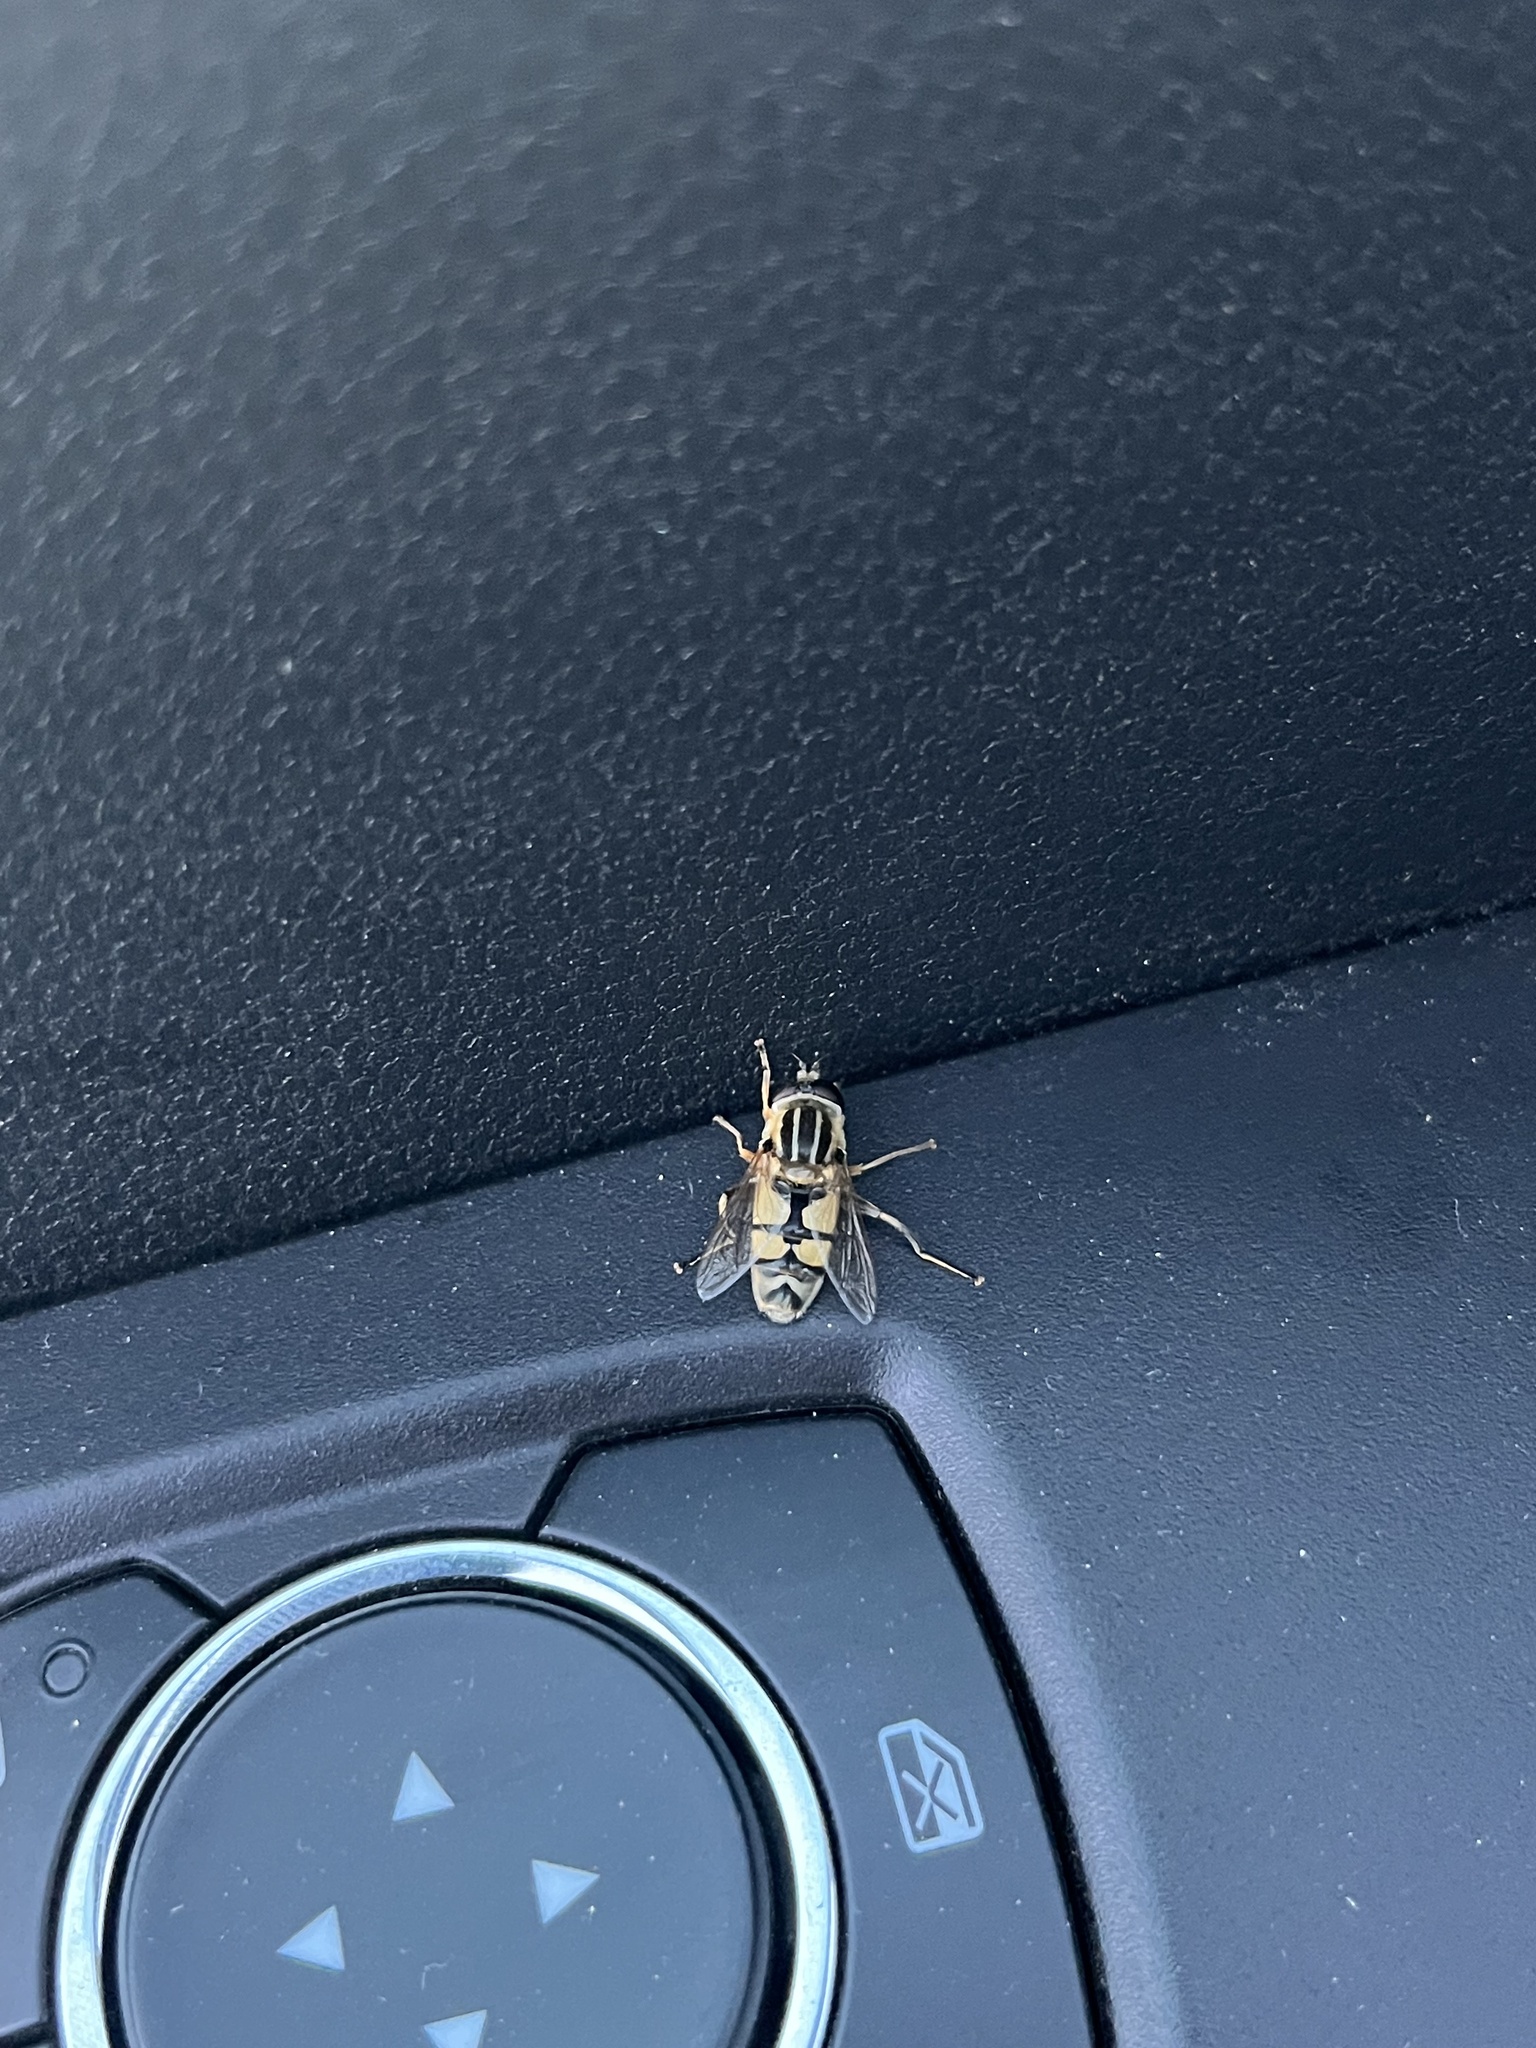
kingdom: Animalia
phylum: Arthropoda
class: Insecta
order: Diptera
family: Syrphidae
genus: Helophilus
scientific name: Helophilus latifrons
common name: Broad-headed marsh fly
